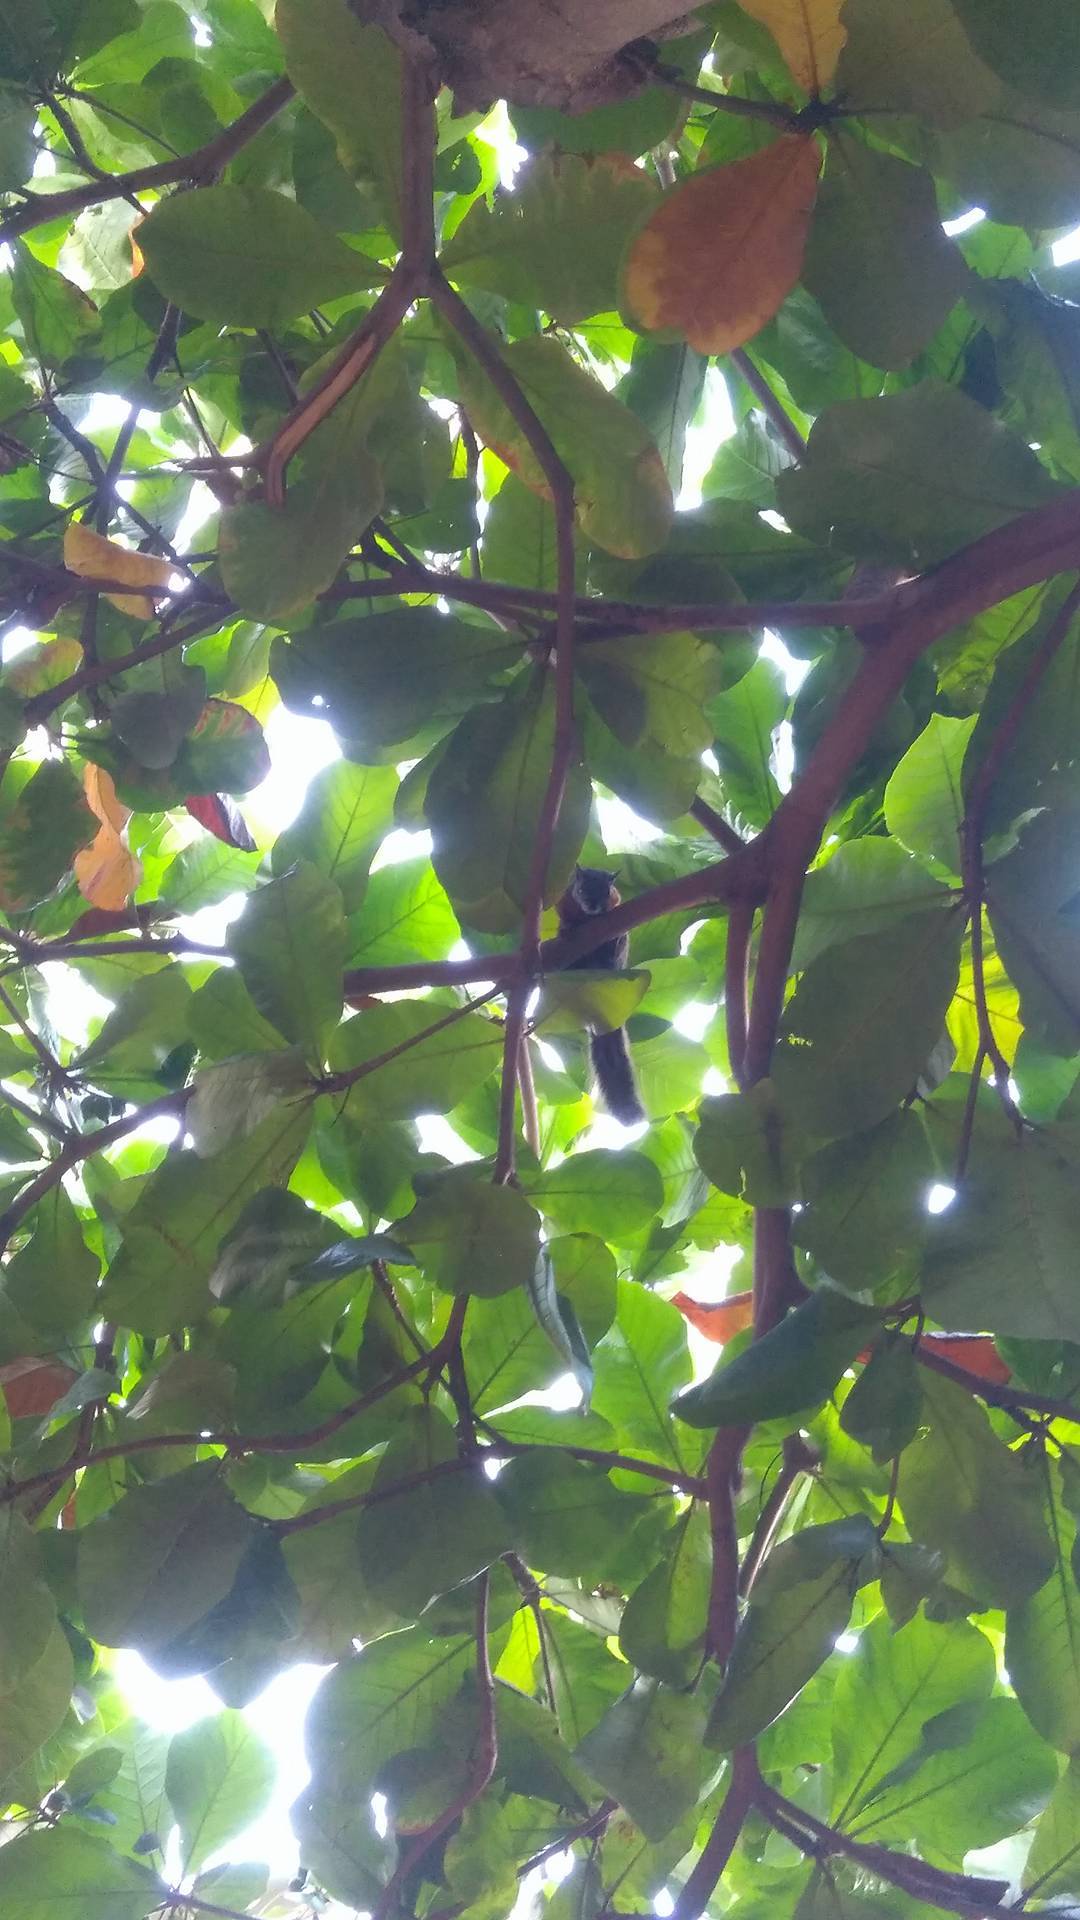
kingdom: Animalia
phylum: Chordata
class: Mammalia
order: Rodentia
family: Sciuridae
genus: Sciurus
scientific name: Sciurus aureogaster
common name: Red-bellied squirrel
